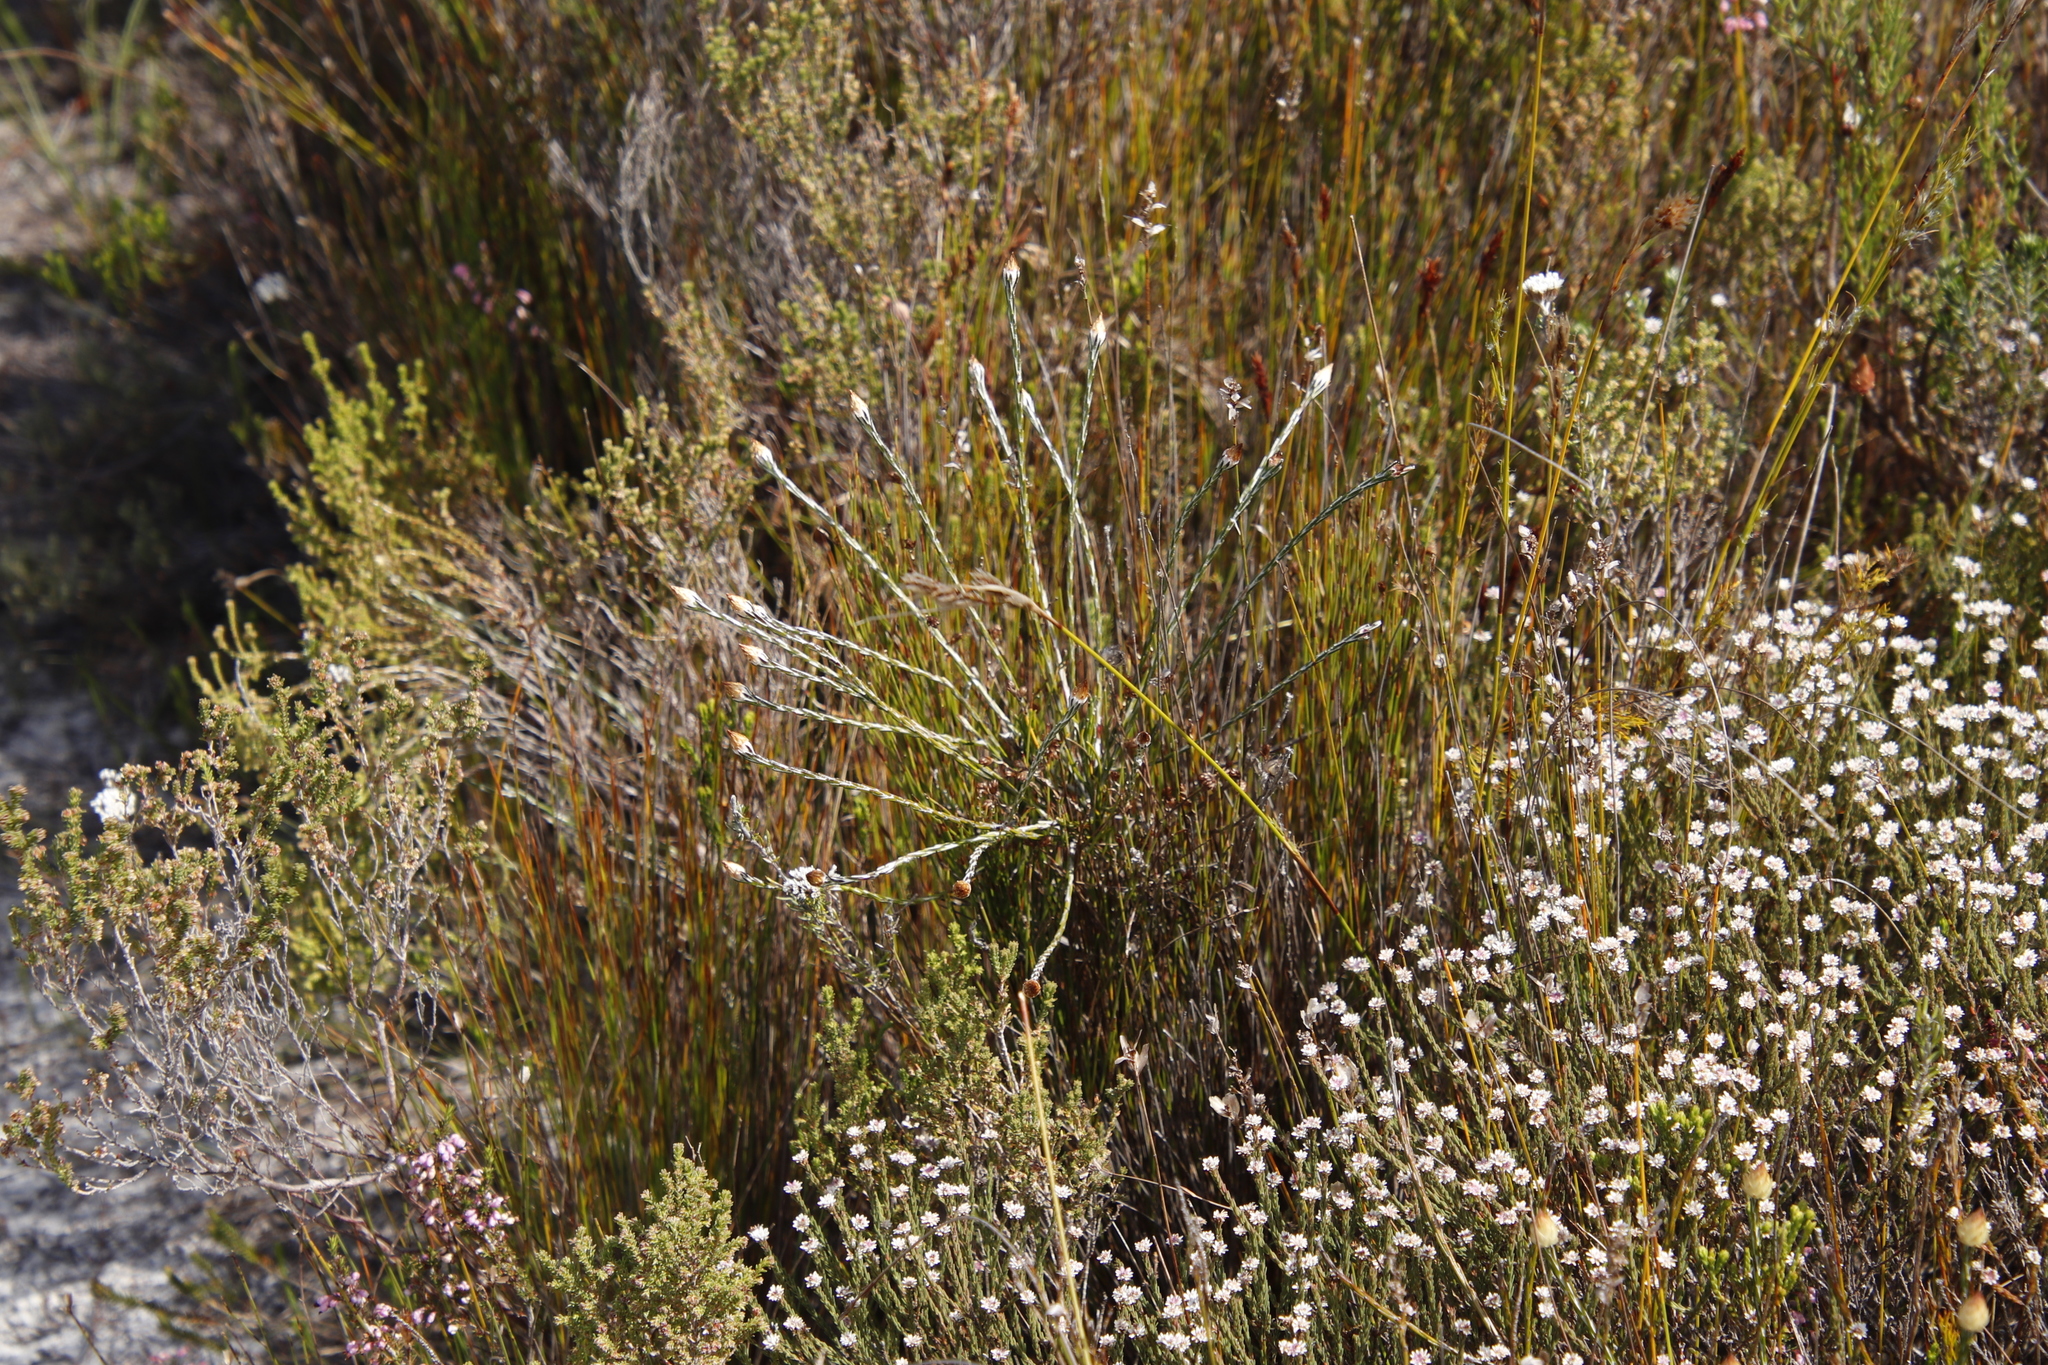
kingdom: Plantae
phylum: Tracheophyta
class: Magnoliopsida
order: Asterales
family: Asteraceae
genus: Edmondia
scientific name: Edmondia sesamoides
